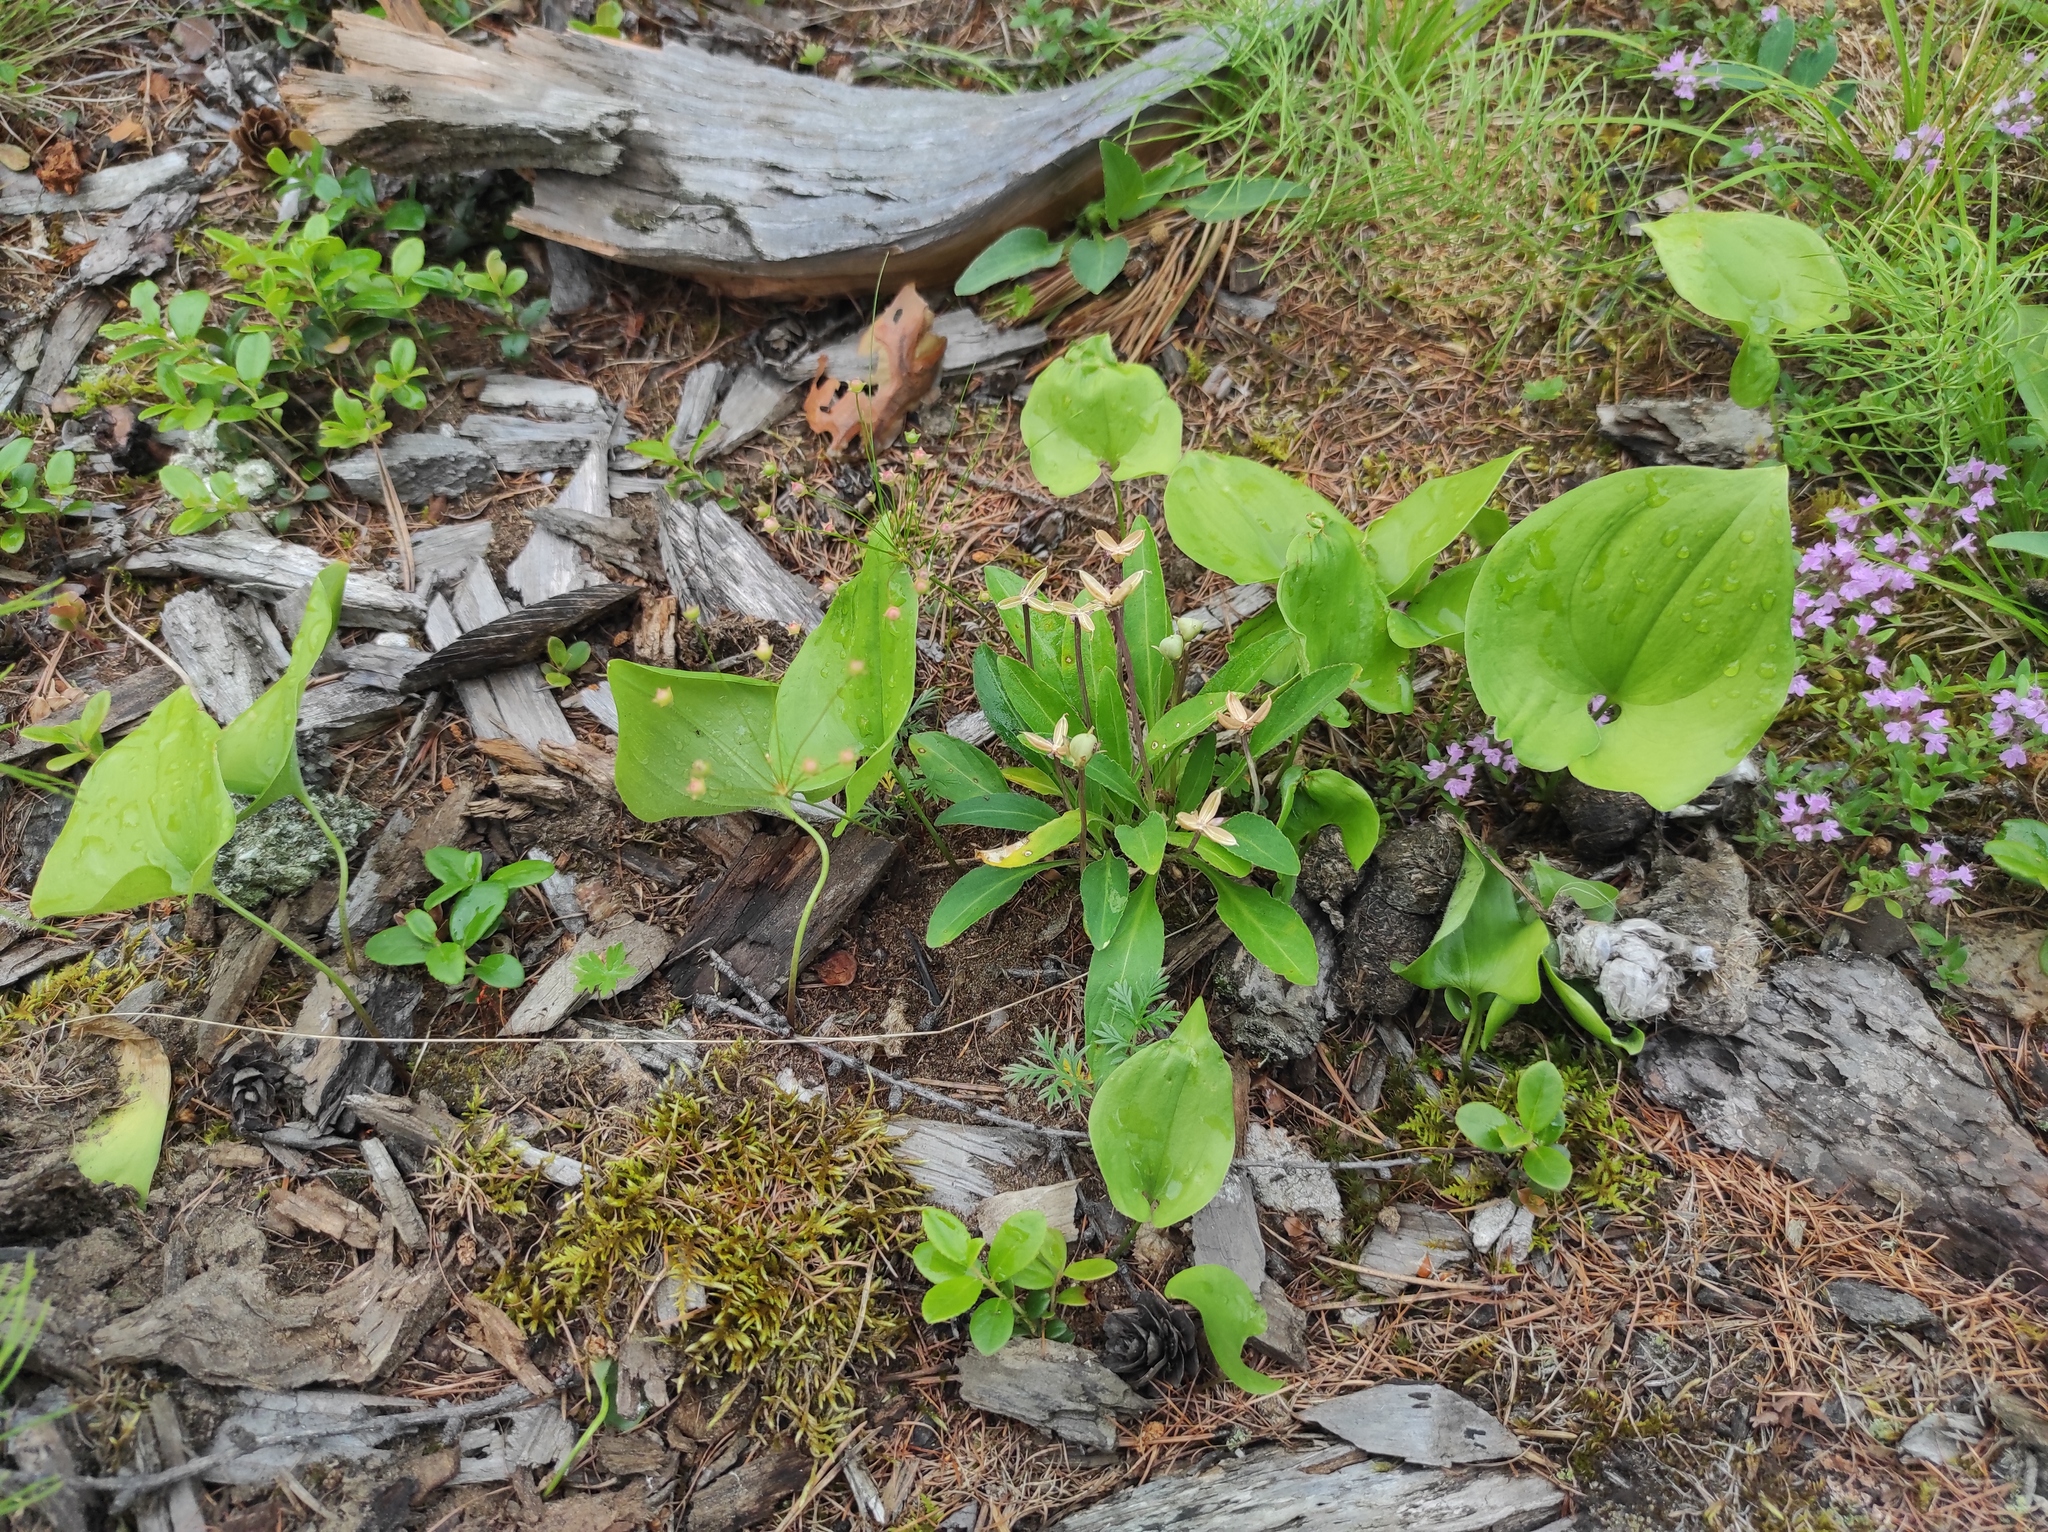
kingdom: Plantae
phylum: Tracheophyta
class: Liliopsida
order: Asparagales
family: Asparagaceae
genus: Maianthemum
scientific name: Maianthemum bifolium
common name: May lily
